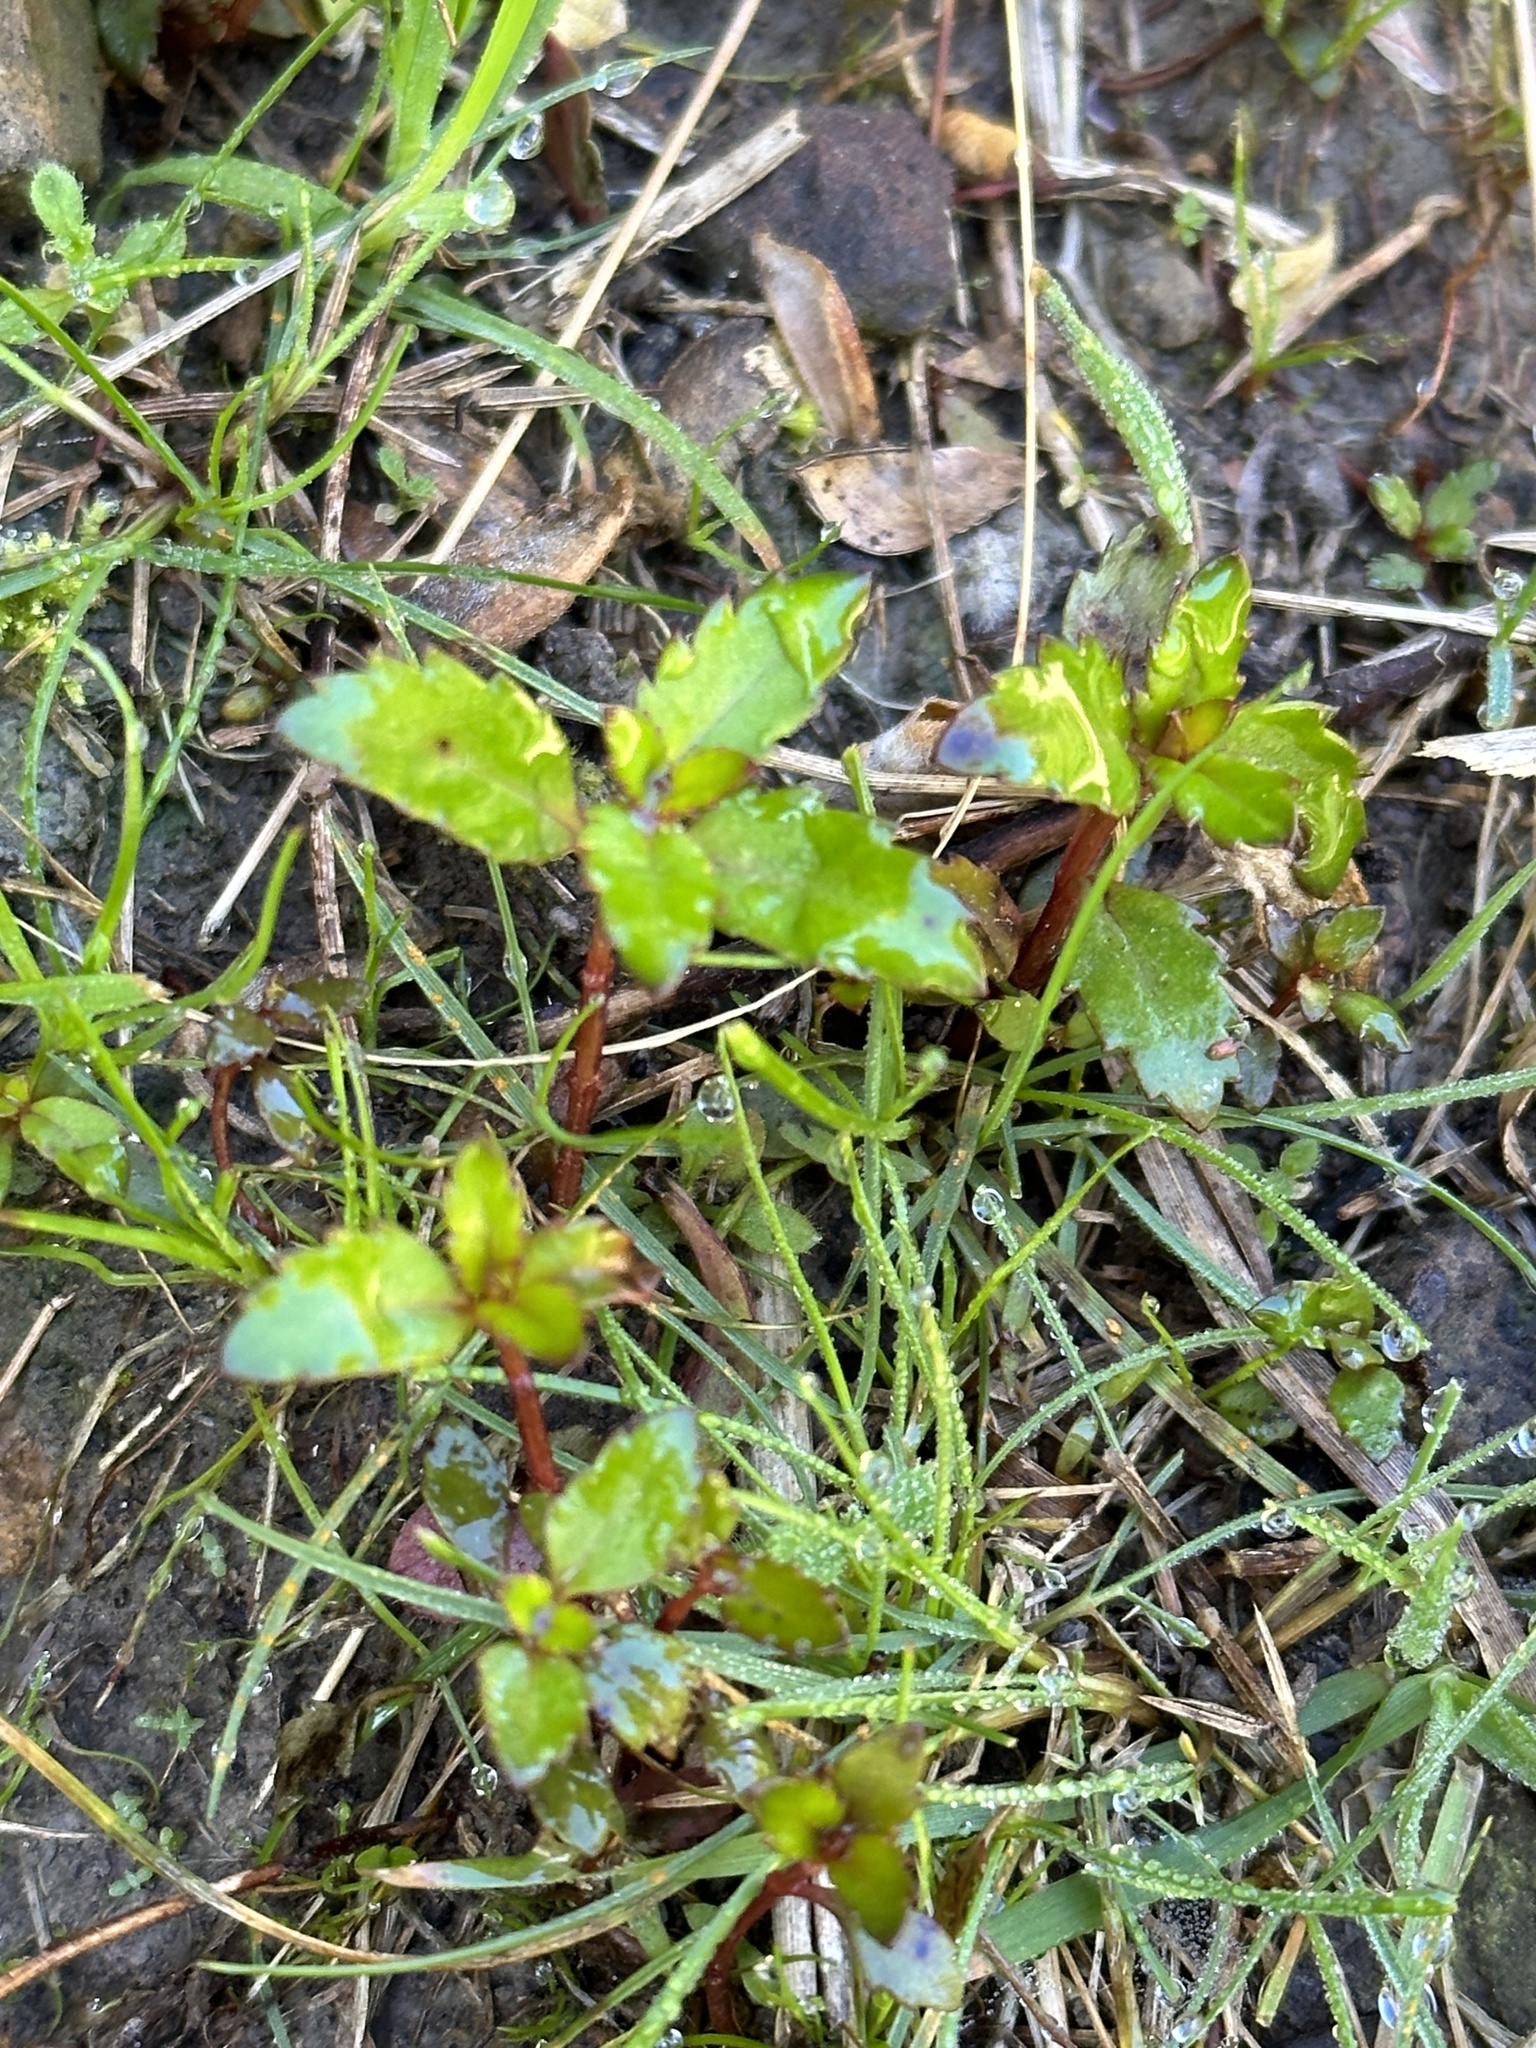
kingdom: Plantae
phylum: Tracheophyta
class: Magnoliopsida
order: Saxifragales
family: Haloragaceae
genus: Haloragis
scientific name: Haloragis erecta
